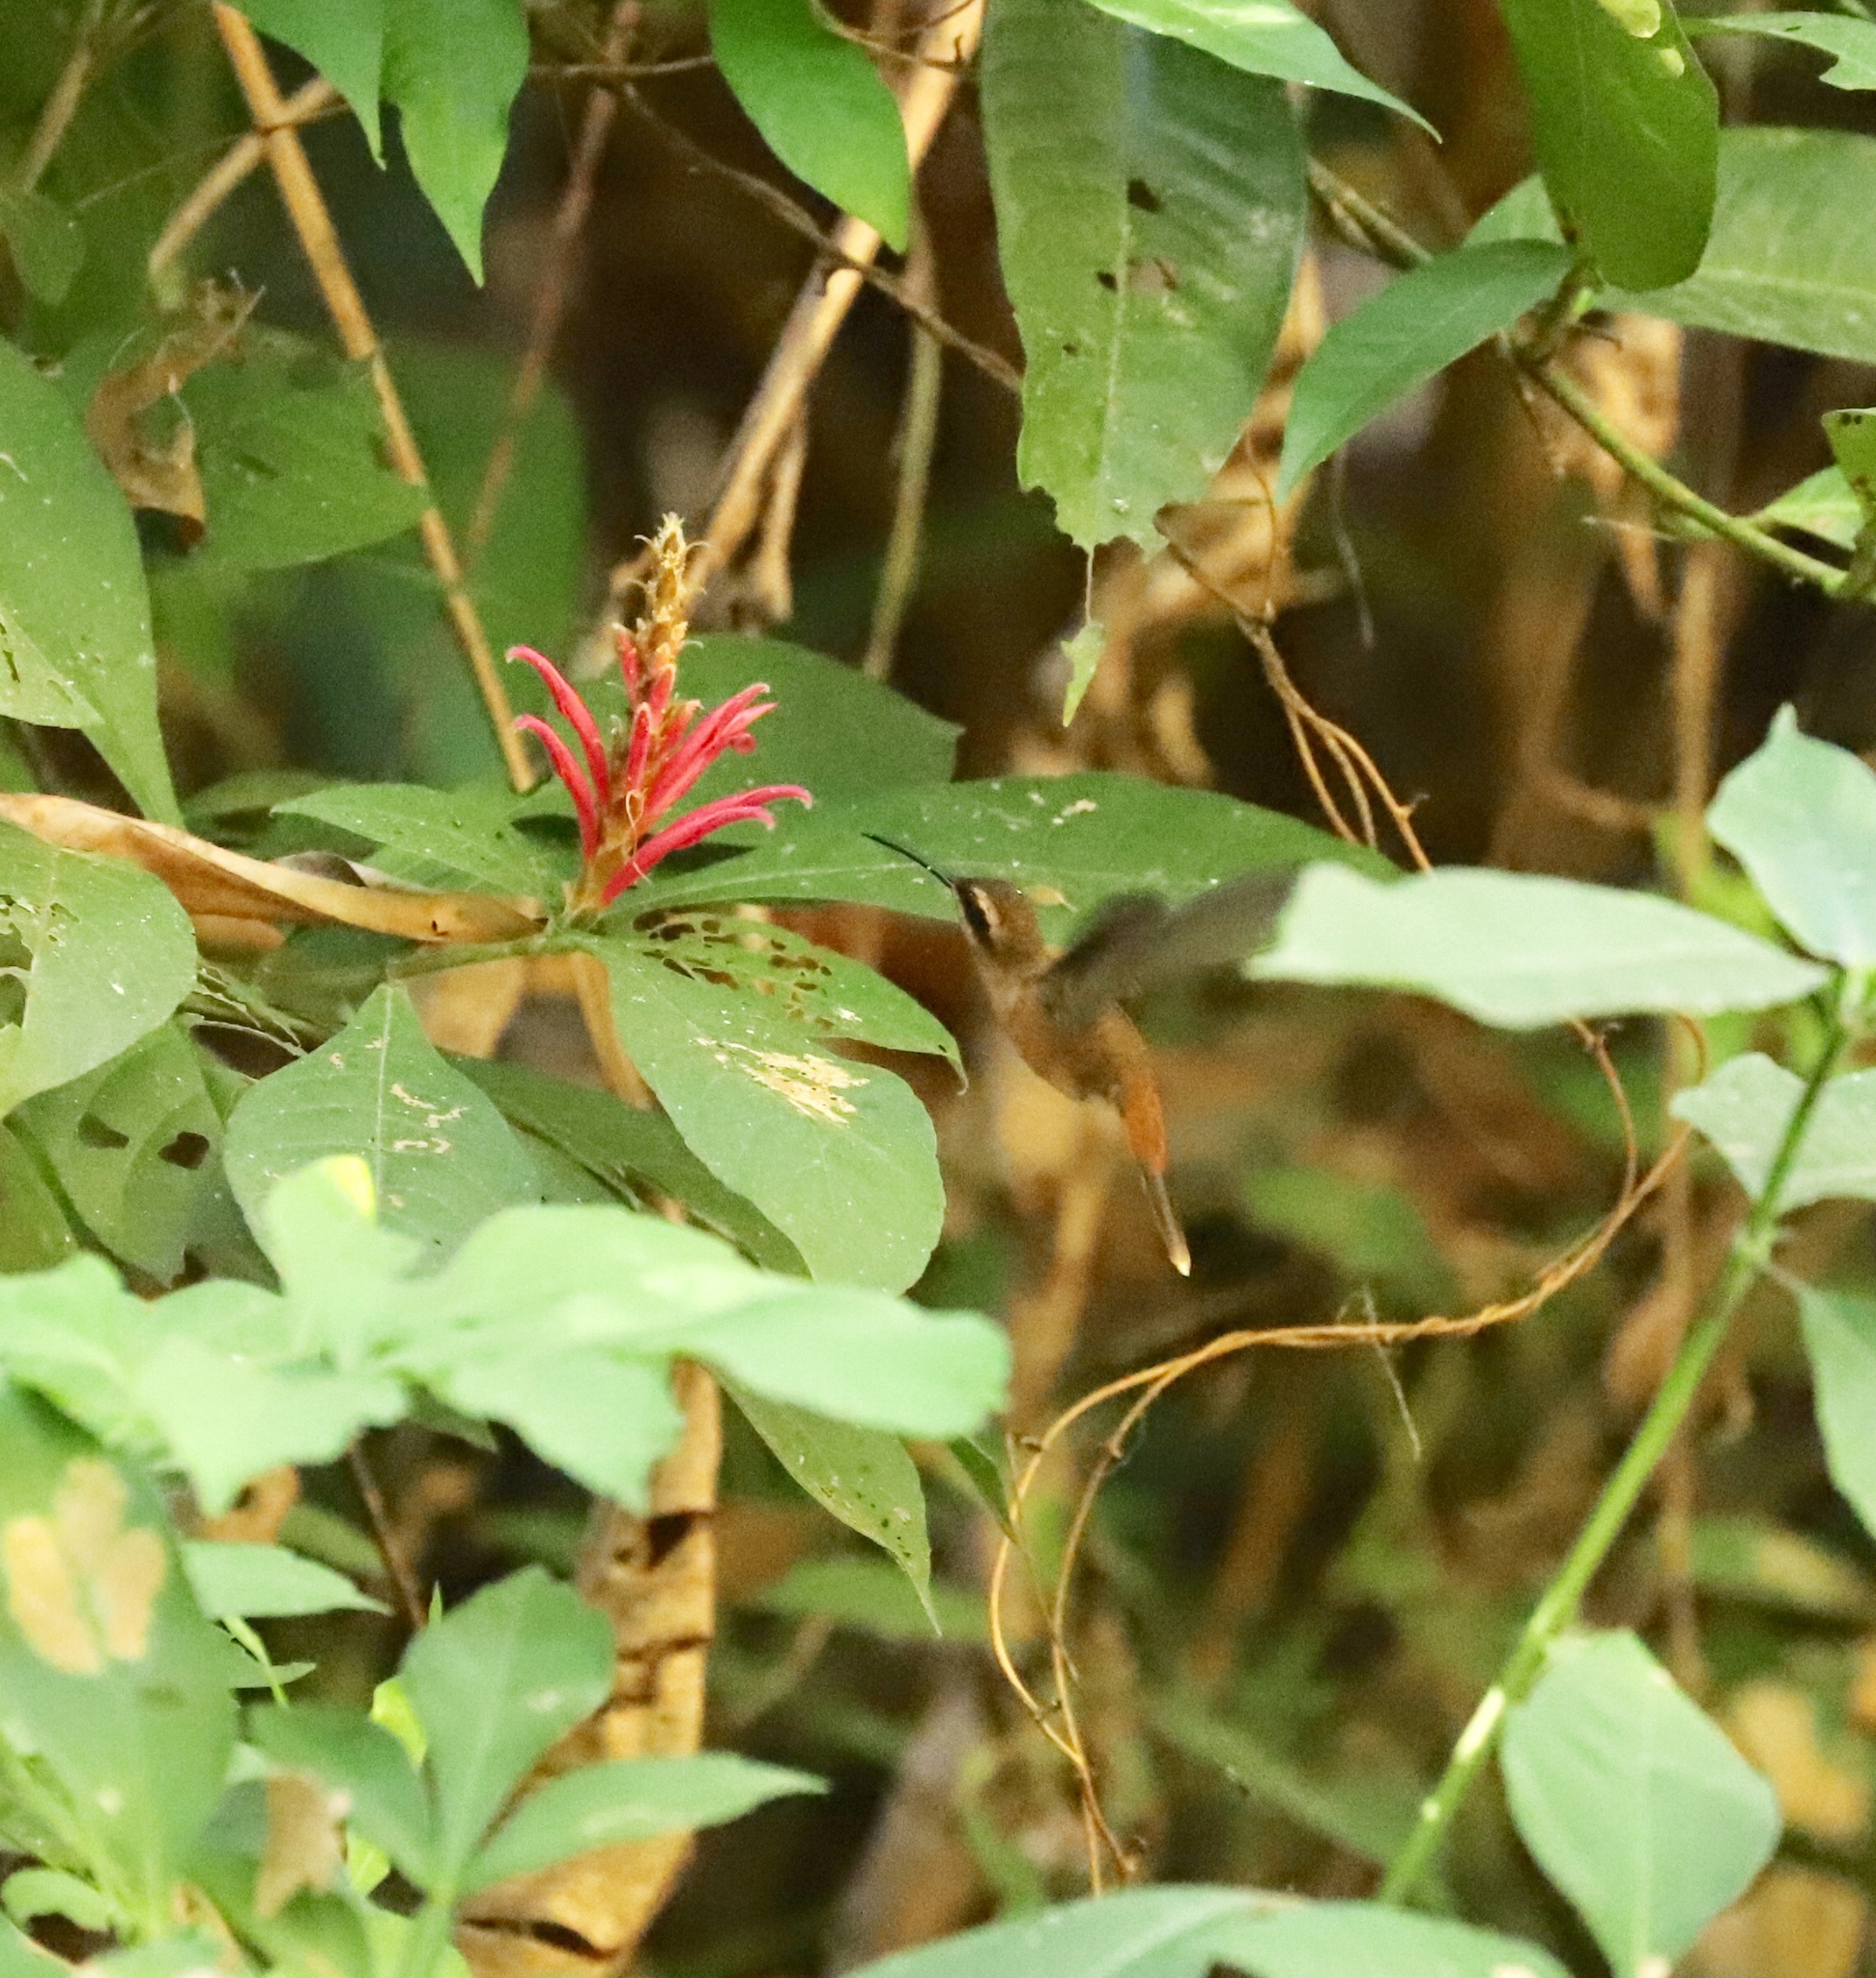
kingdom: Animalia
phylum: Chordata
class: Aves
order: Apodiformes
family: Trochilidae
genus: Phaethornis
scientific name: Phaethornis striigularis
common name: Stripe-throated hermit
